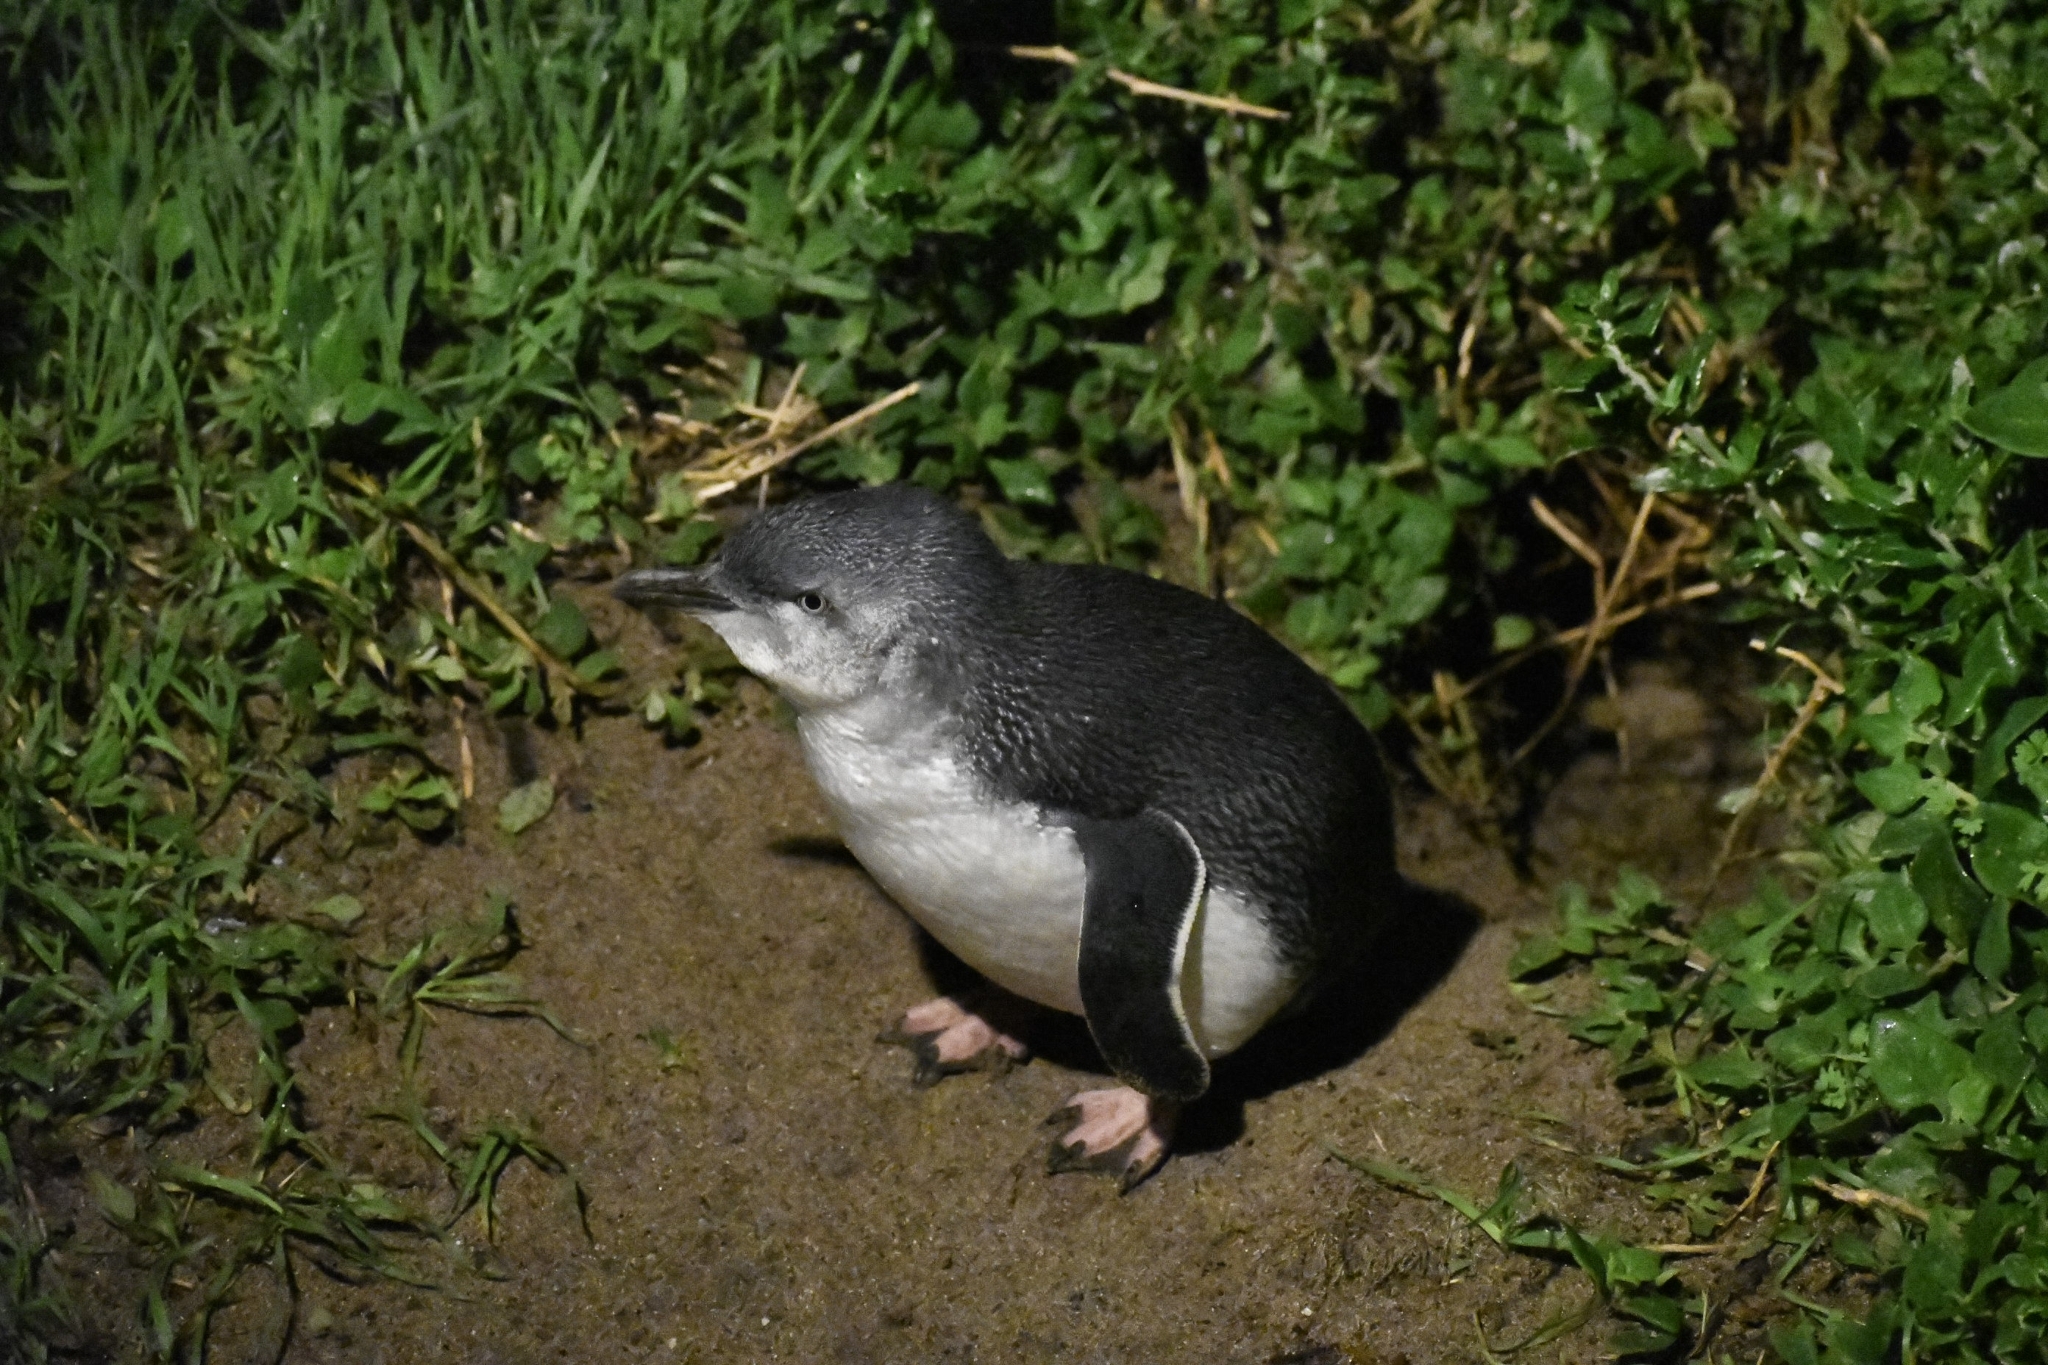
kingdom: Animalia
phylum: Chordata
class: Aves
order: Sphenisciformes
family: Spheniscidae
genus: Eudyptula
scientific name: Eudyptula minor
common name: Little penguin
